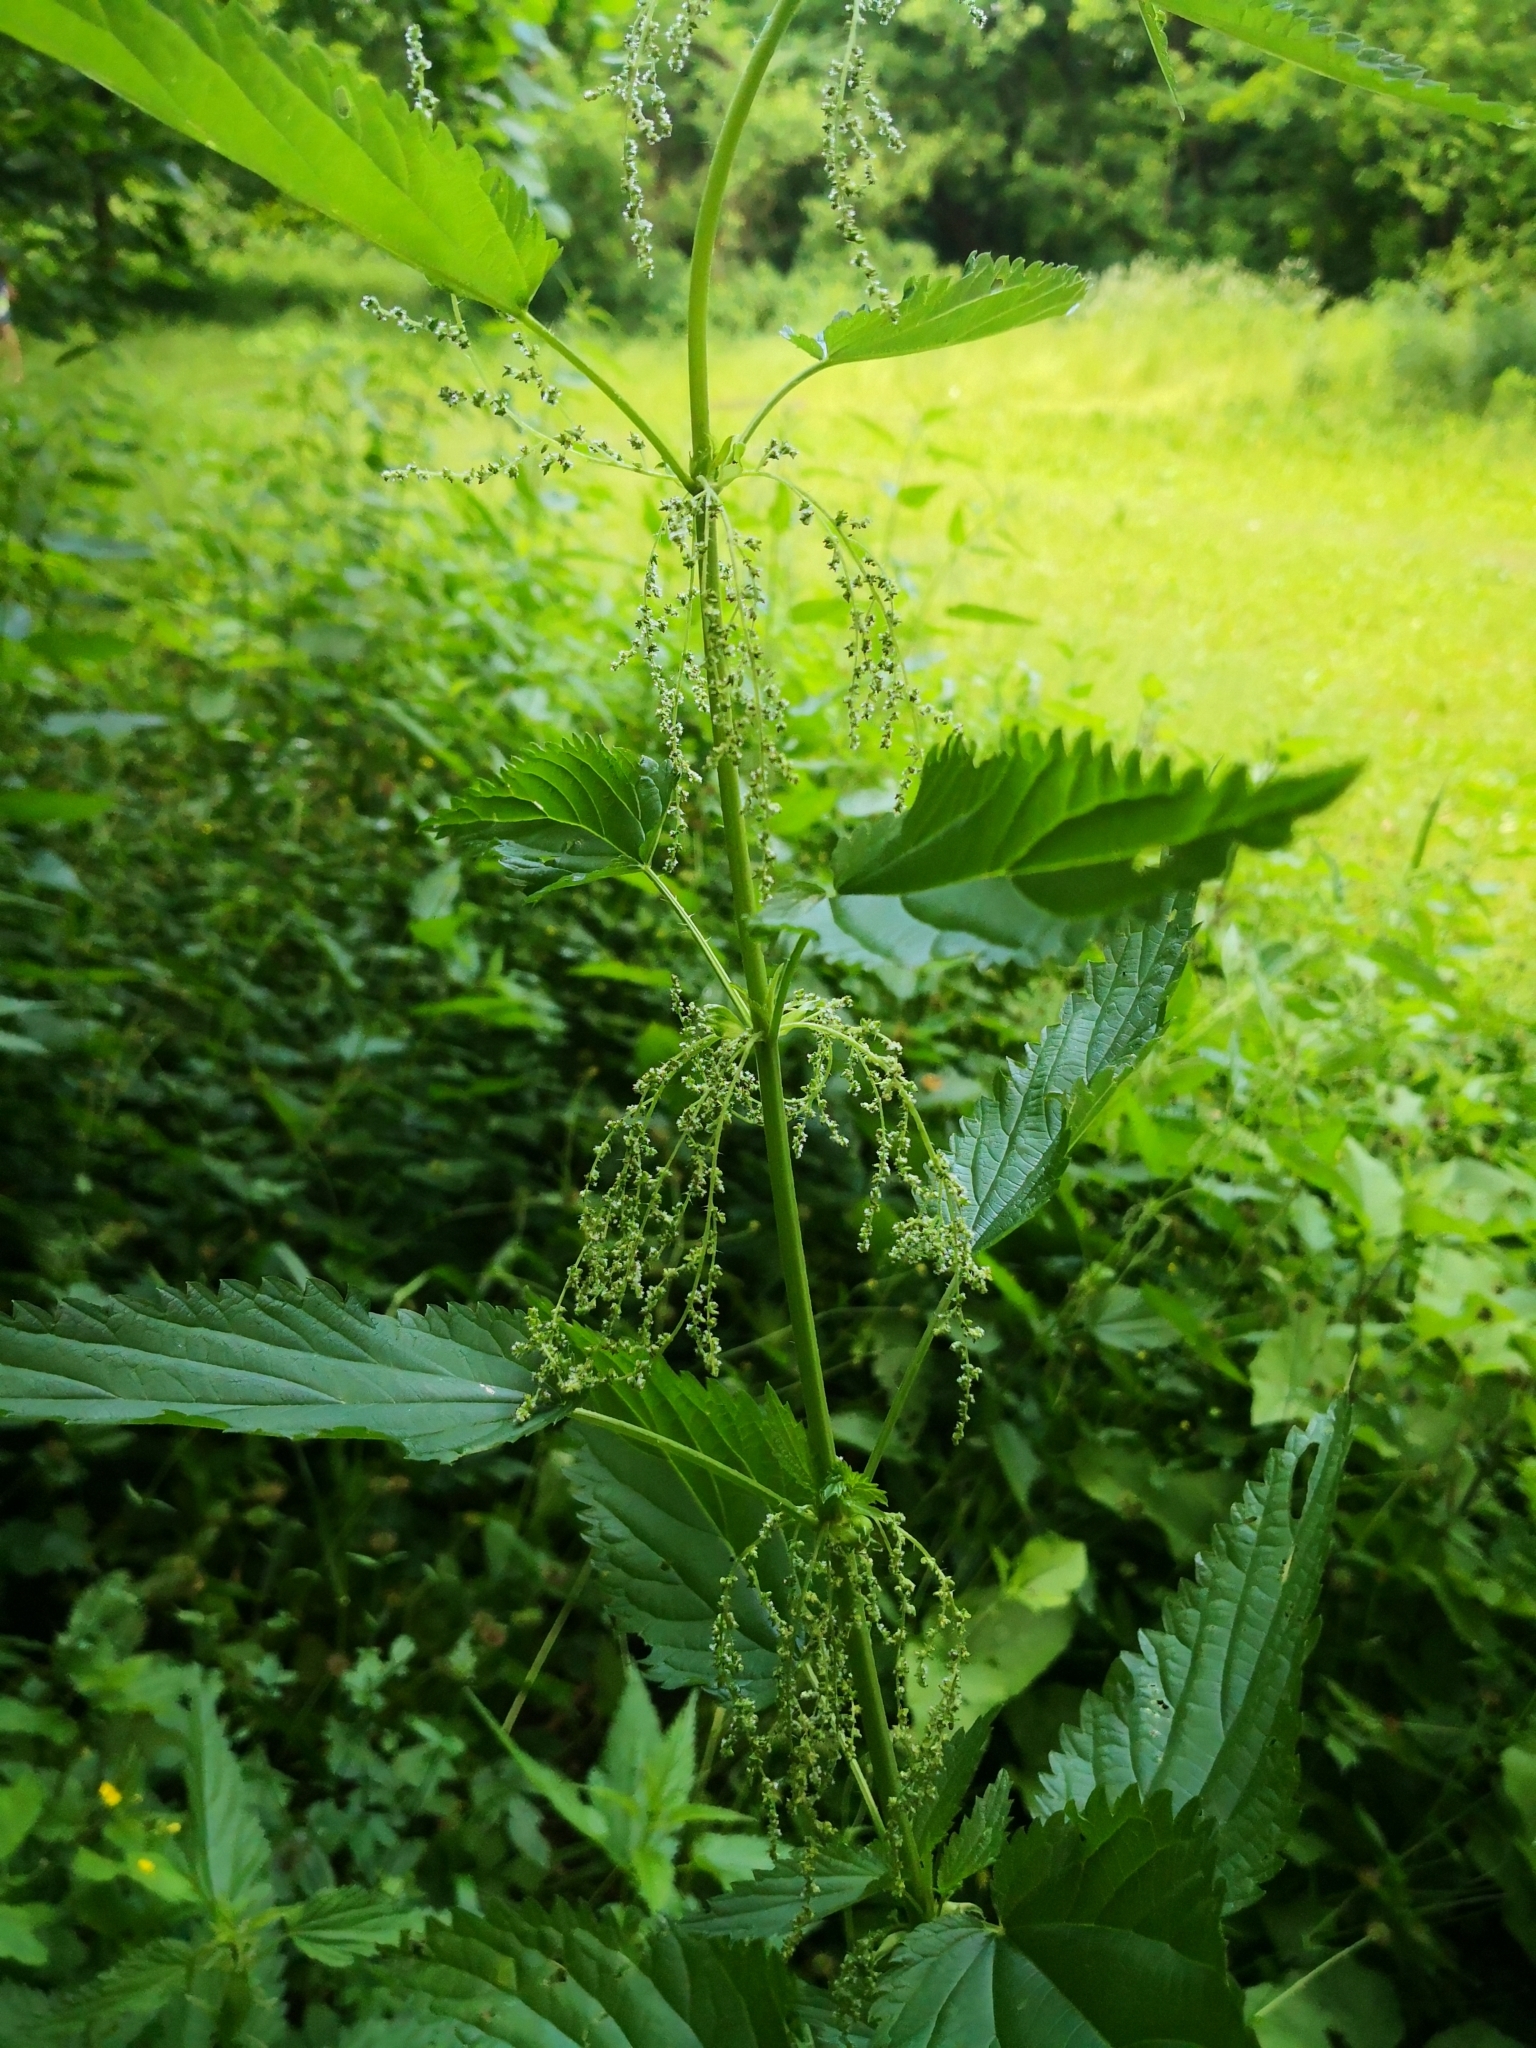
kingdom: Plantae
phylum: Tracheophyta
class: Magnoliopsida
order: Rosales
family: Urticaceae
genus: Urtica
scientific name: Urtica dioica
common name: Common nettle
